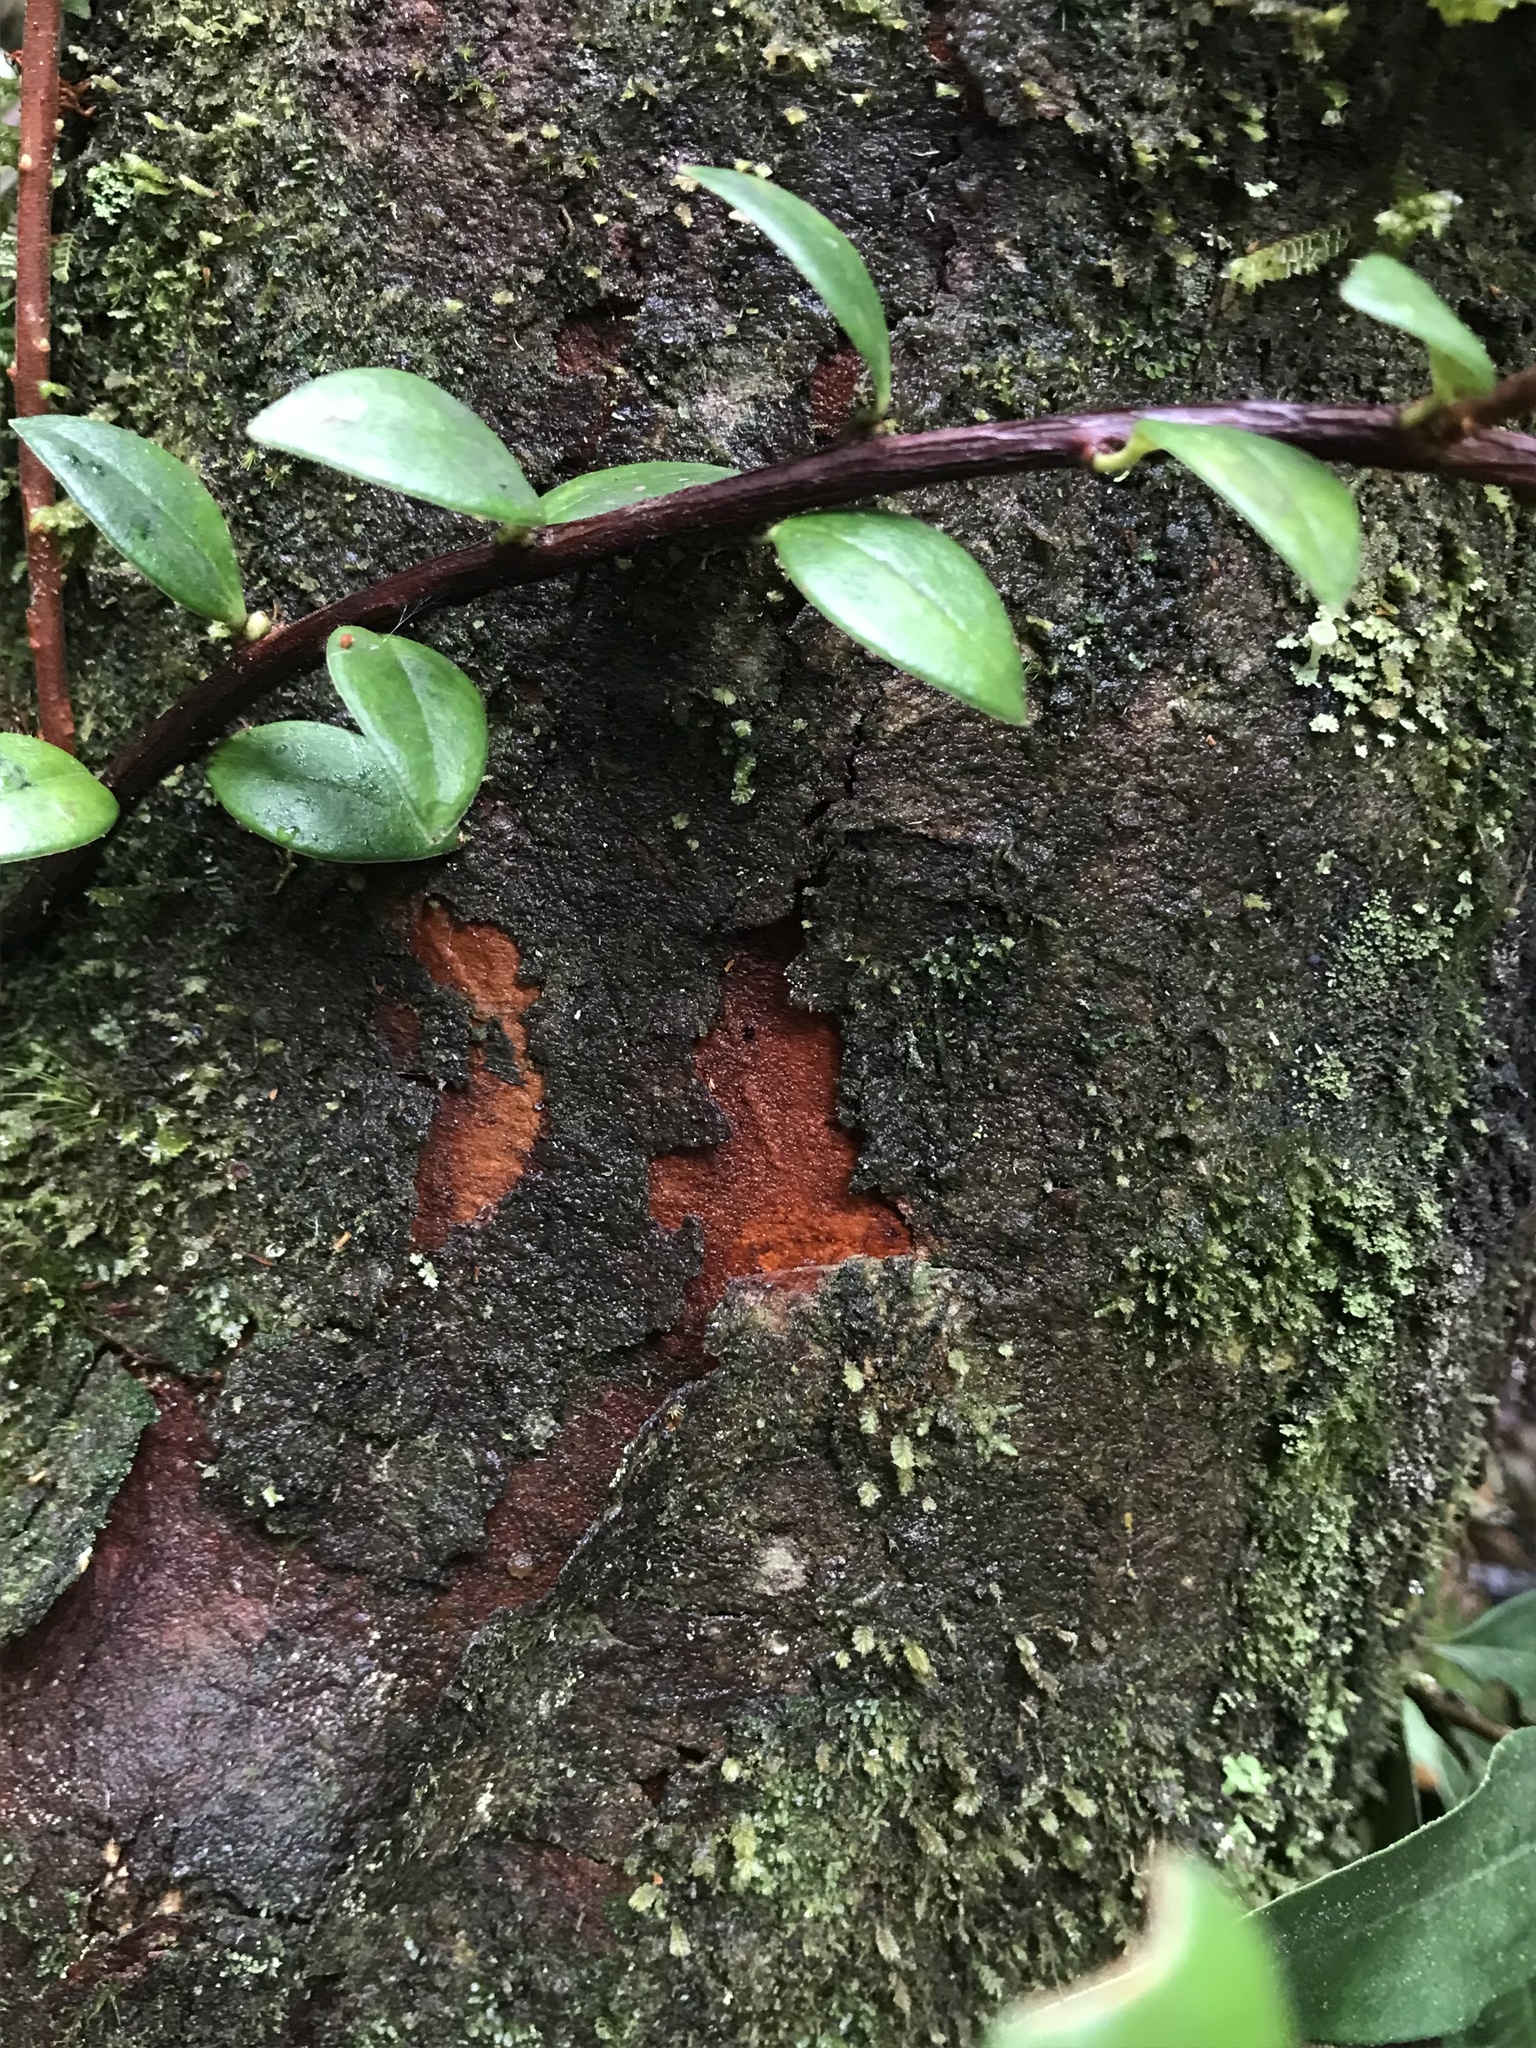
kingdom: Plantae
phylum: Tracheophyta
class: Magnoliopsida
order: Myrtales
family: Melastomataceae
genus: Axinaea
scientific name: Axinaea macrophylla
